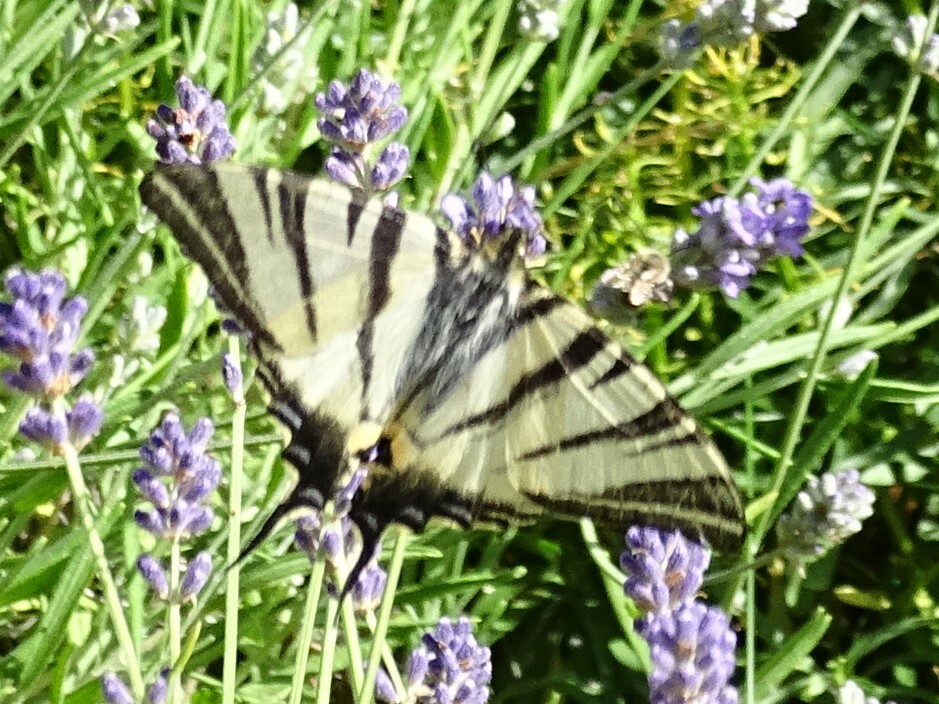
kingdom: Animalia
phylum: Arthropoda
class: Insecta
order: Lepidoptera
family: Papilionidae
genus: Iphiclides
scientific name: Iphiclides podalirius
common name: Scarce swallowtail
